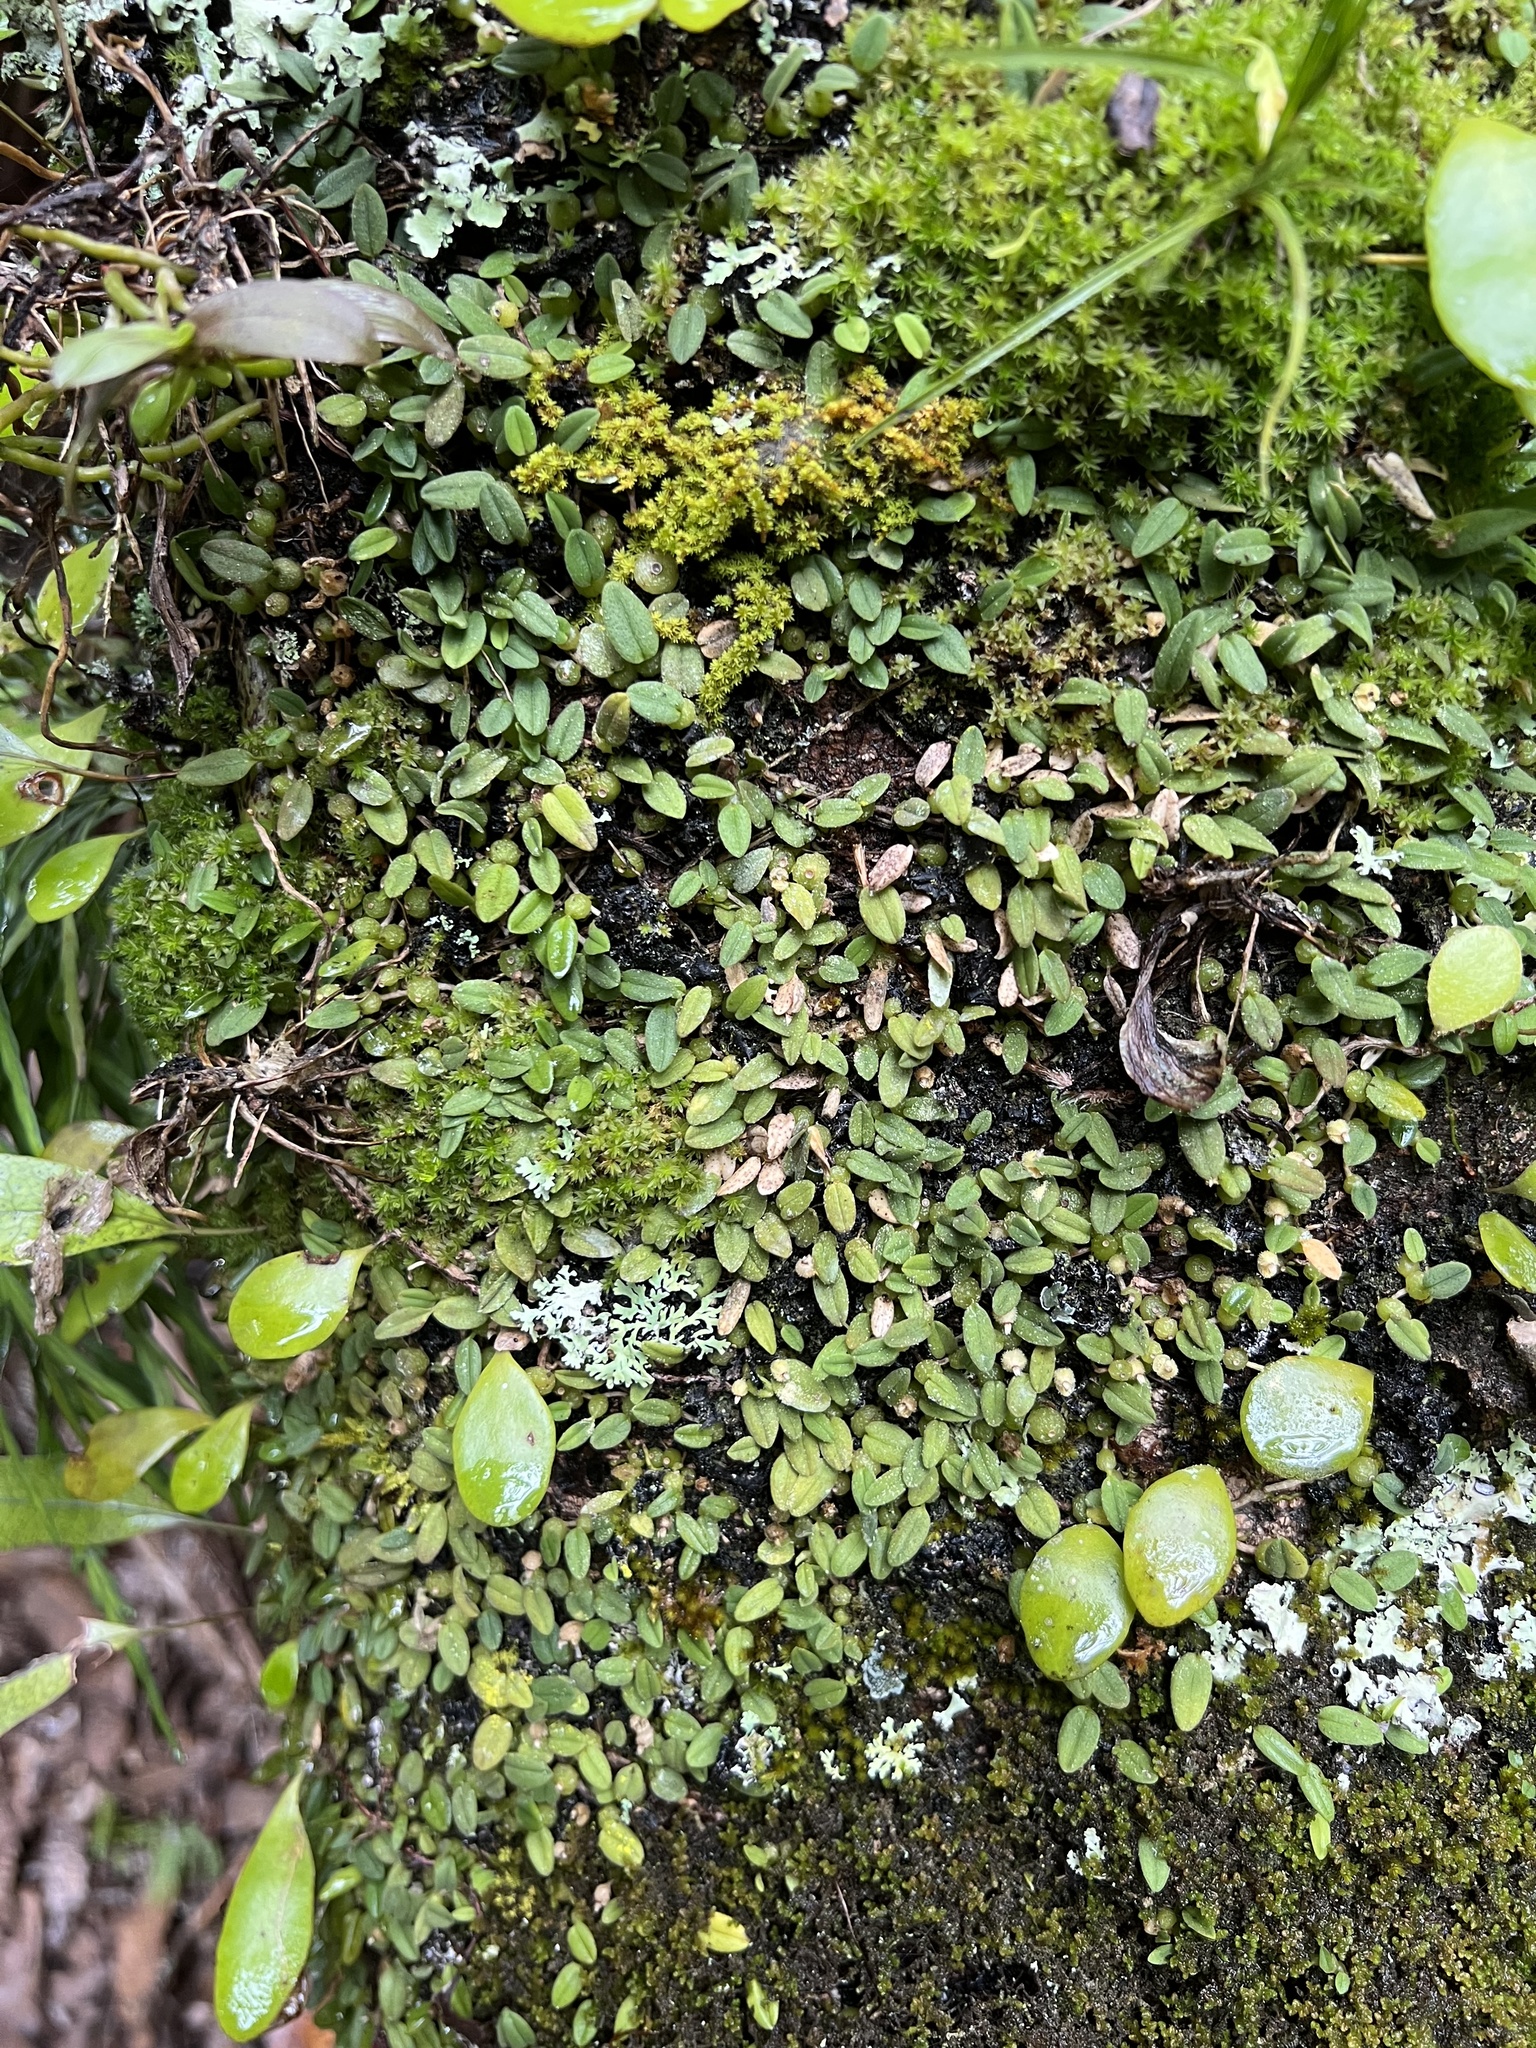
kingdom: Plantae
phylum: Tracheophyta
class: Liliopsida
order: Asparagales
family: Orchidaceae
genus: Bulbophyllum
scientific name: Bulbophyllum pygmaeum
